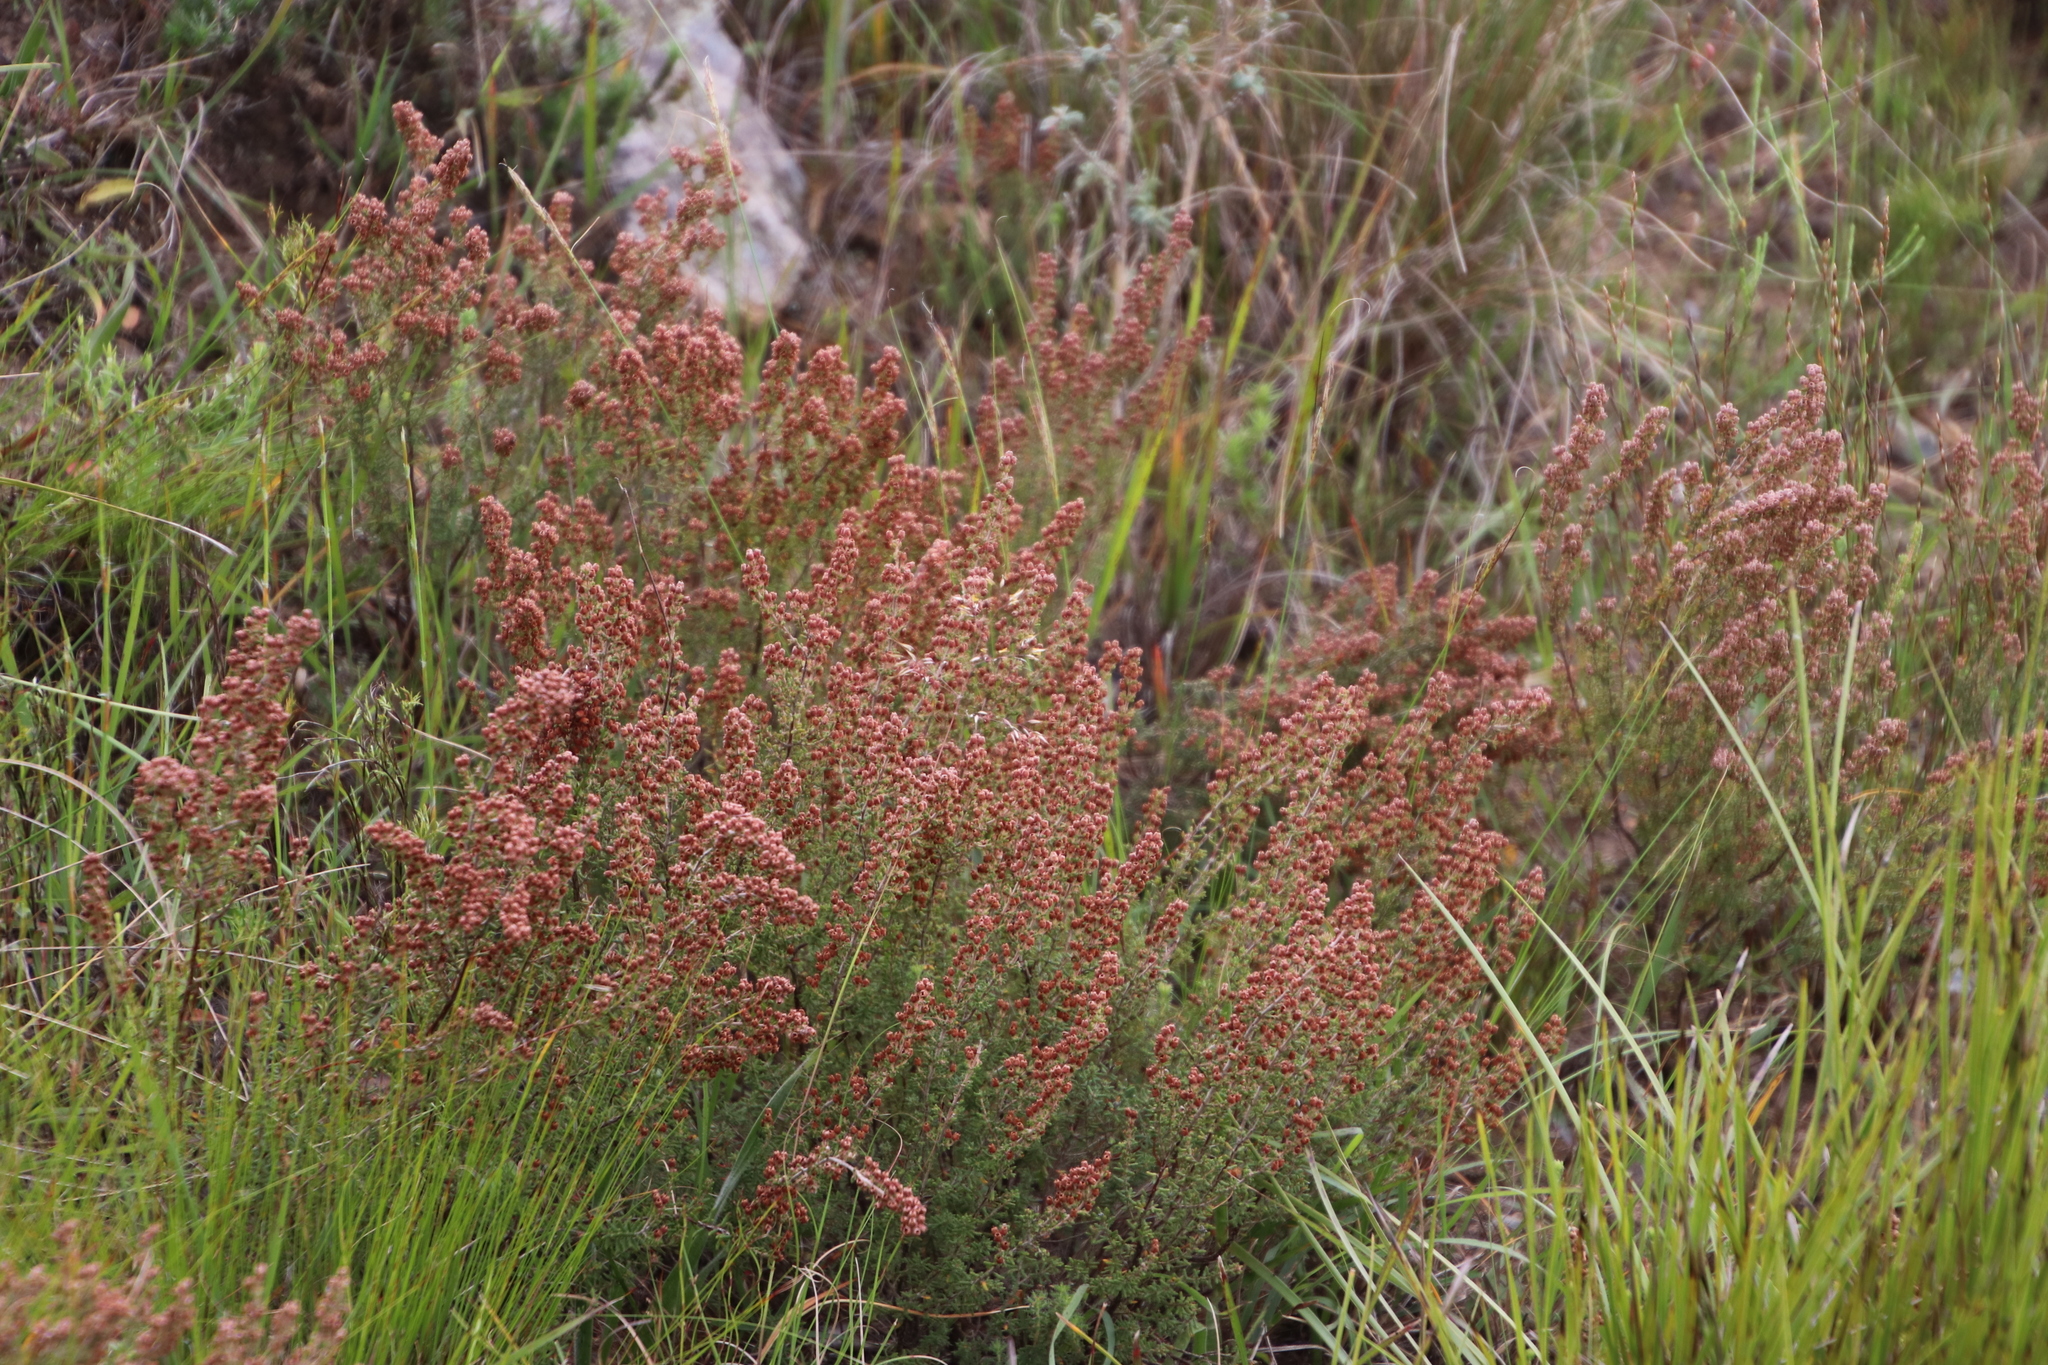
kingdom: Plantae
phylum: Tracheophyta
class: Magnoliopsida
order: Ericales
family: Ericaceae
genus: Erica
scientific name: Erica setacea
